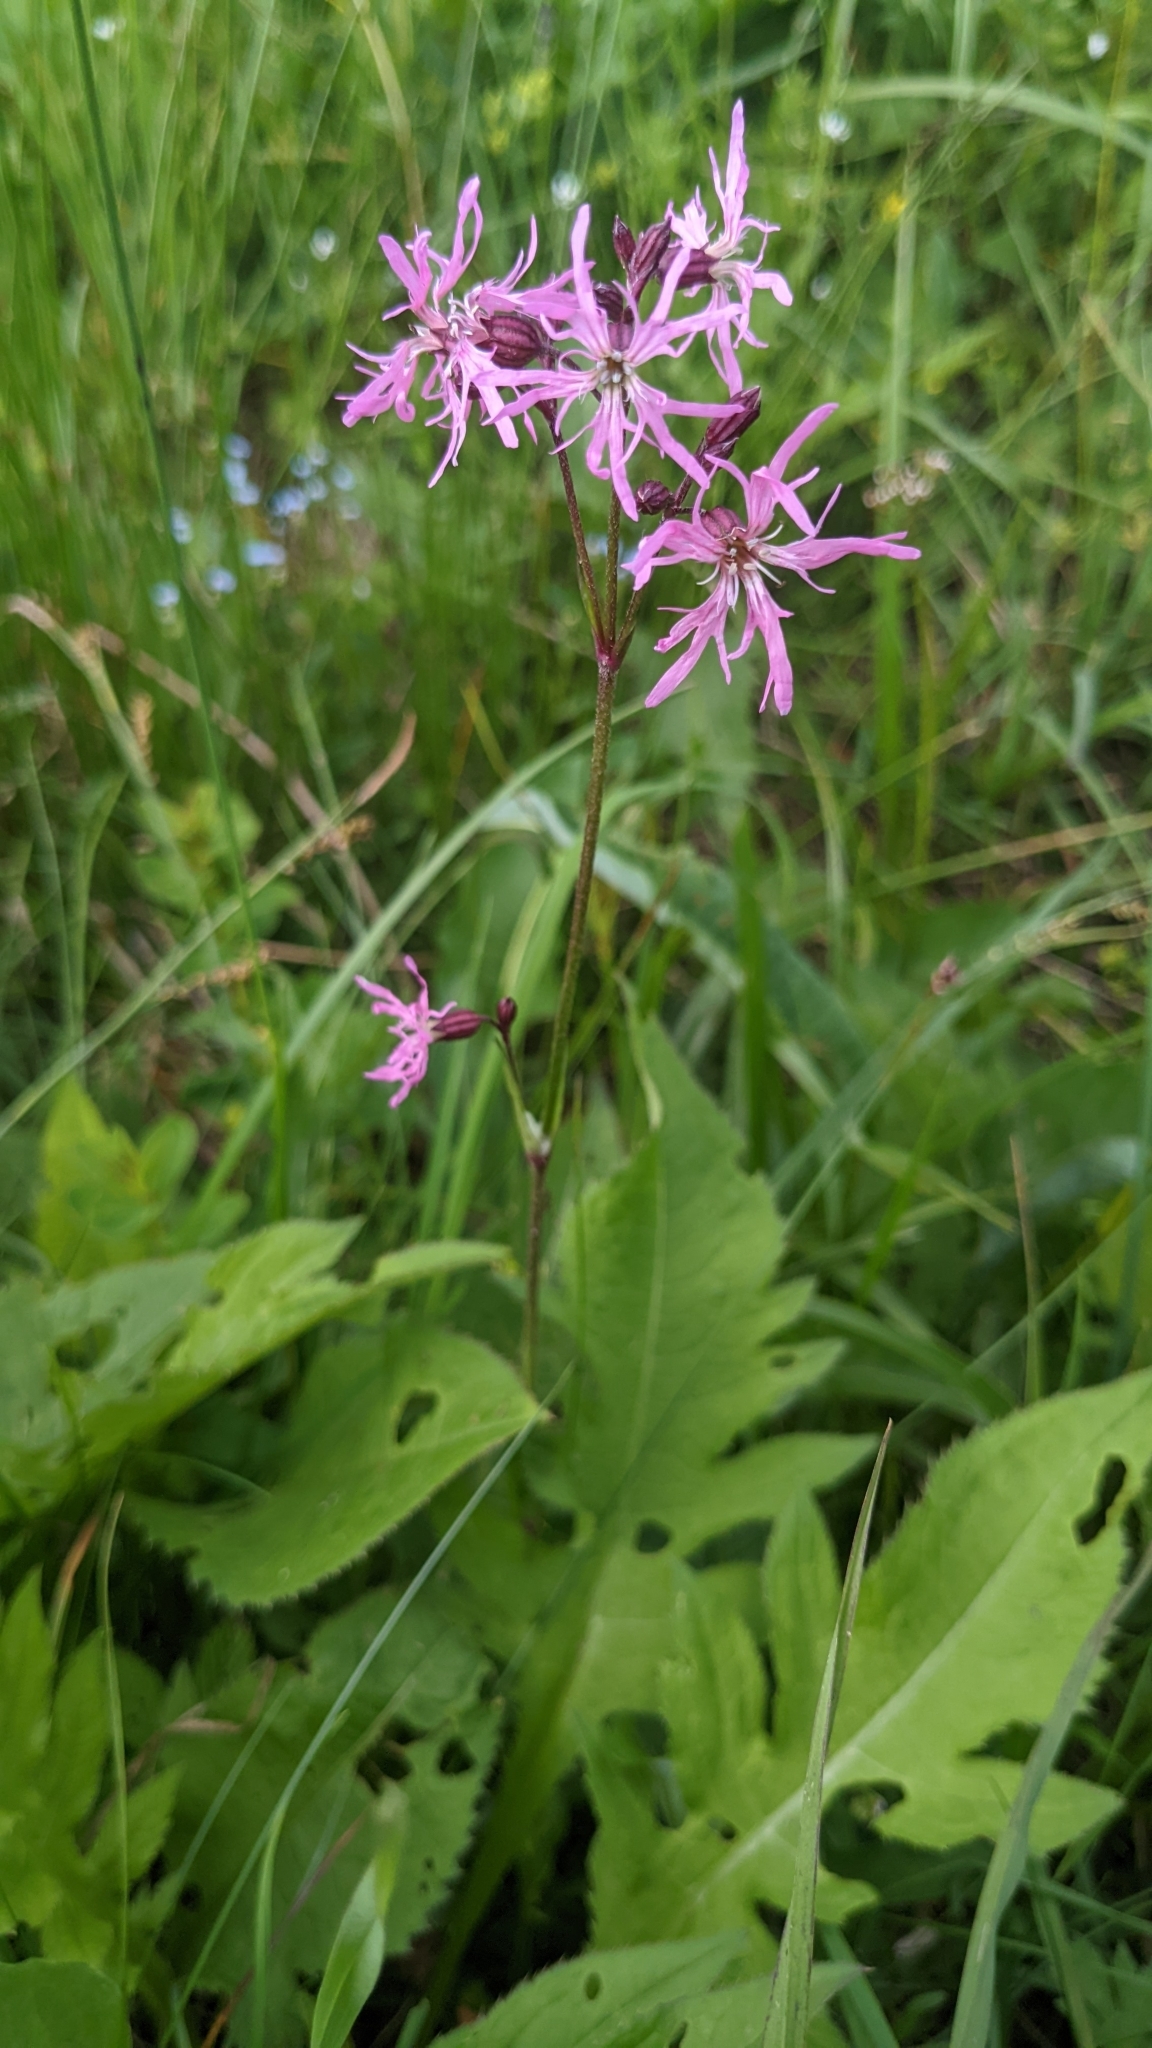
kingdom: Plantae
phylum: Tracheophyta
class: Magnoliopsida
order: Caryophyllales
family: Caryophyllaceae
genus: Silene
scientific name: Silene flos-cuculi
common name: Ragged-robin
